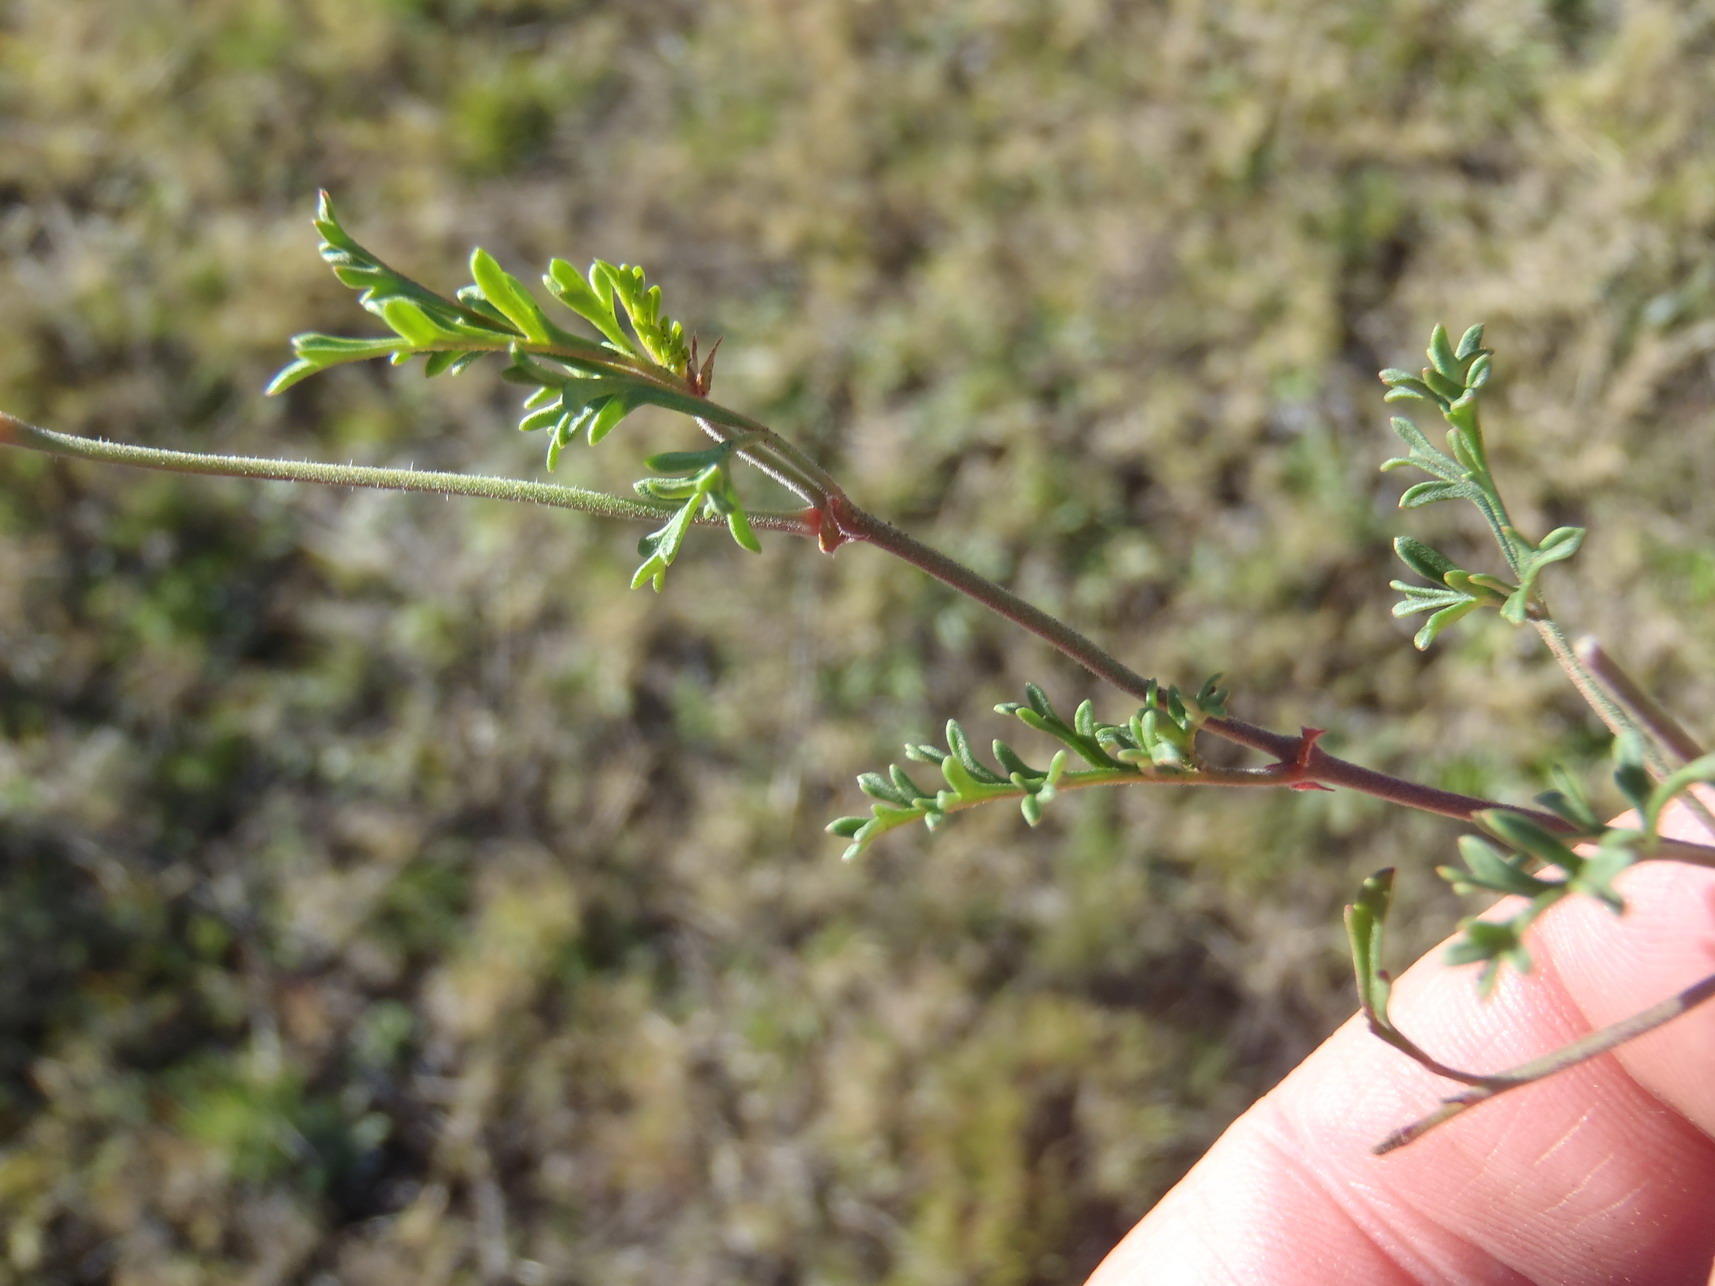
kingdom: Plantae
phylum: Tracheophyta
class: Magnoliopsida
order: Geraniales
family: Geraniaceae
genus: Pelargonium
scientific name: Pelargonium caucalifolium
